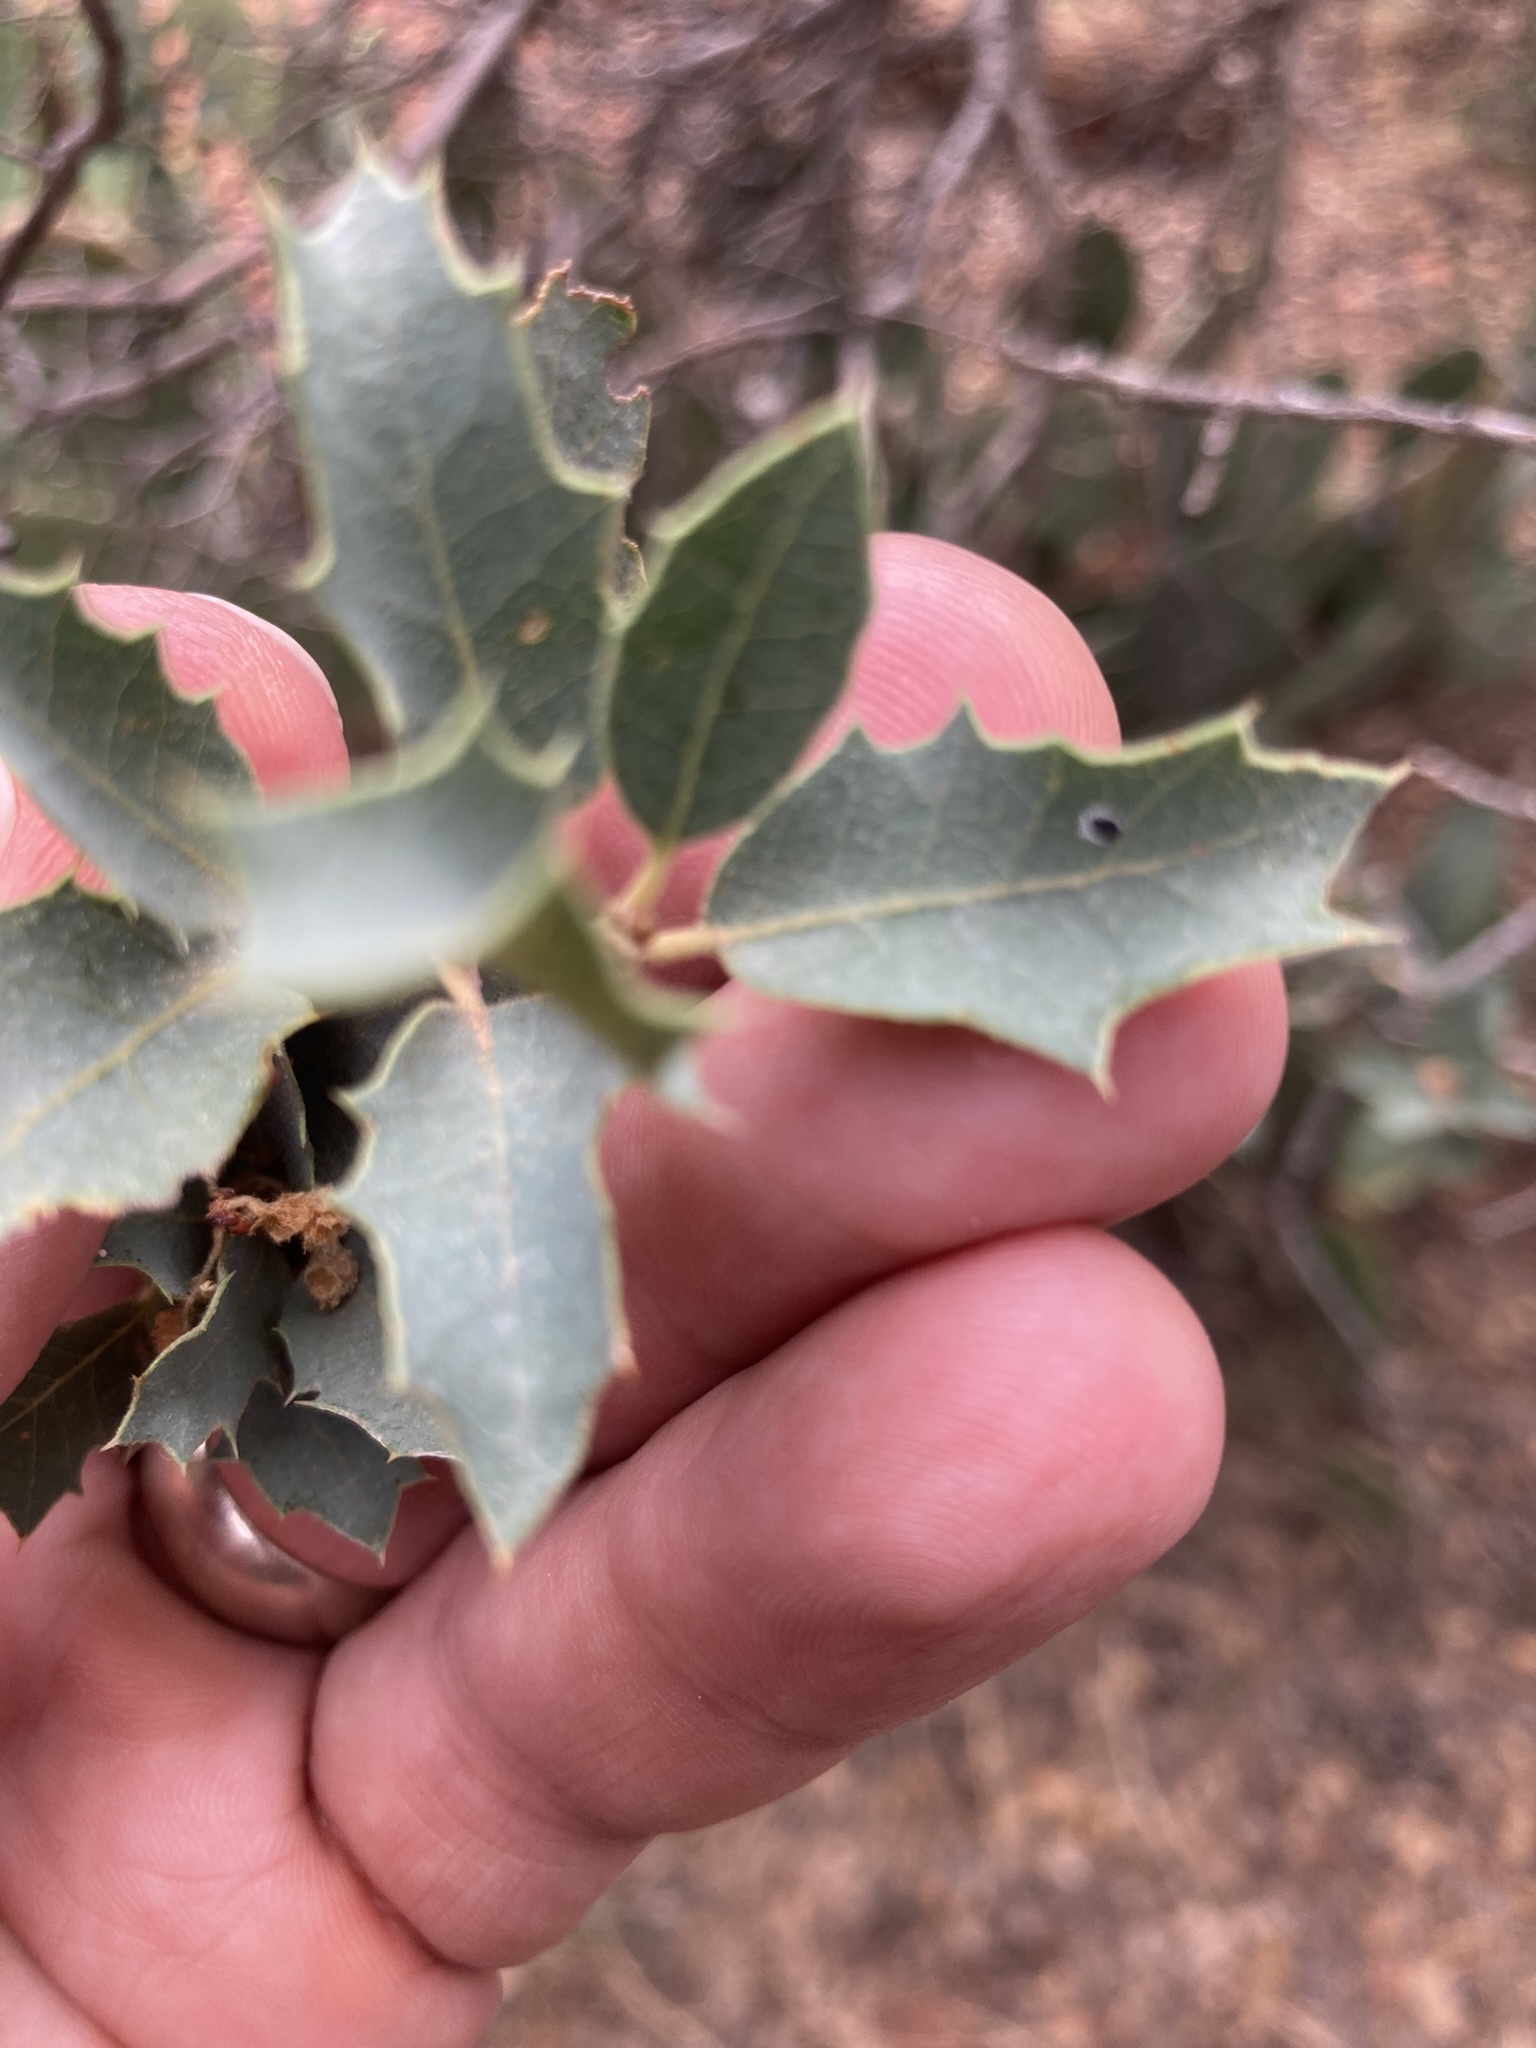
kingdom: Plantae
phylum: Tracheophyta
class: Magnoliopsida
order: Fagales
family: Fagaceae
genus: Quercus
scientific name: Quercus turbinella
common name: Sonoran scrub oak
